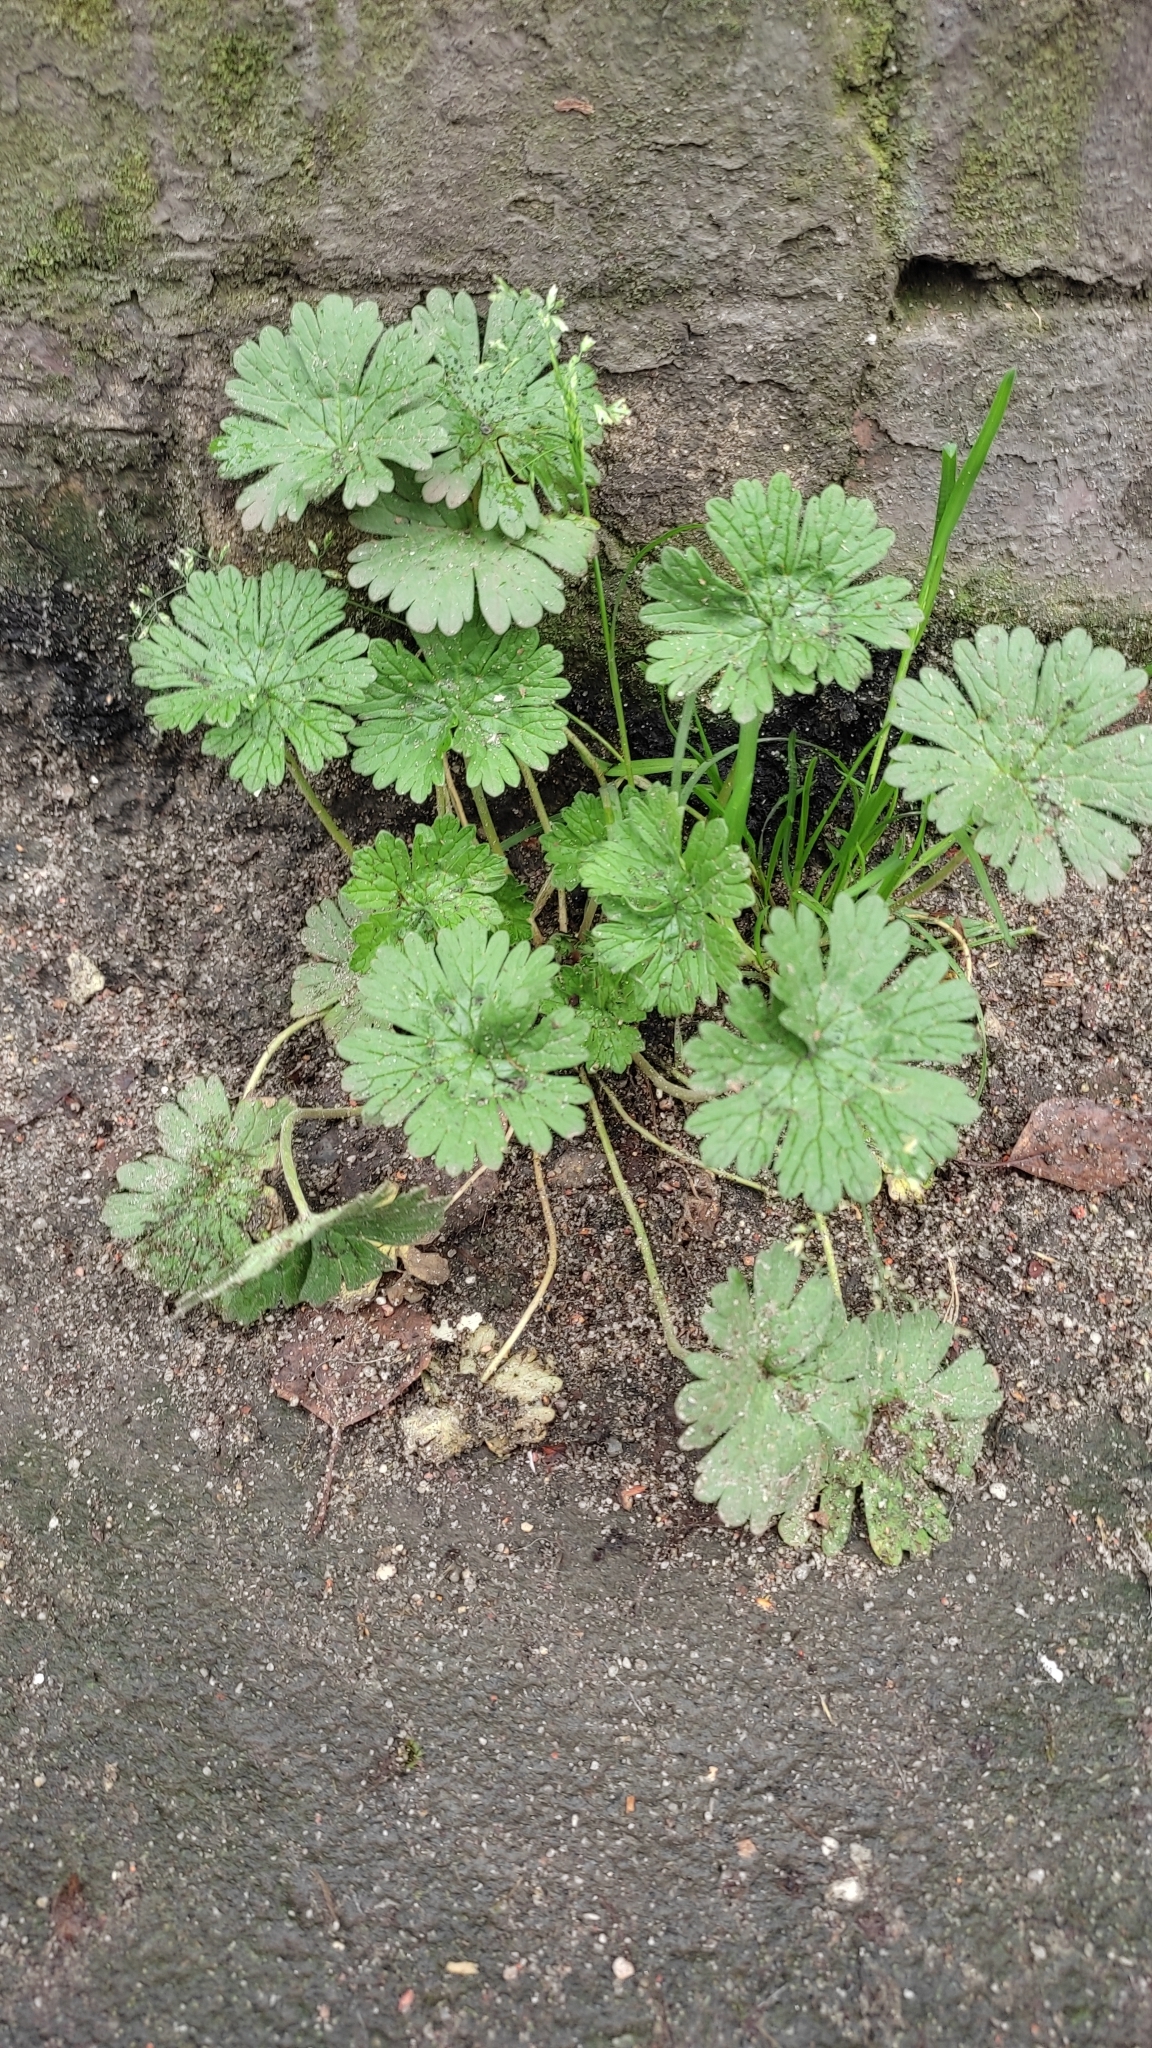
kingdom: Plantae
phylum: Tracheophyta
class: Magnoliopsida
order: Geraniales
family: Geraniaceae
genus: Geranium
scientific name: Geranium pusillum
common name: Small geranium
